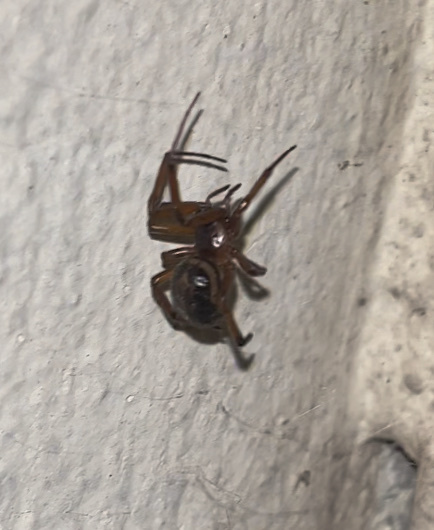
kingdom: Animalia
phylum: Arthropoda
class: Arachnida
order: Araneae
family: Theridiidae
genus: Steatoda
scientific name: Steatoda nobilis
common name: Cobweb weaver
